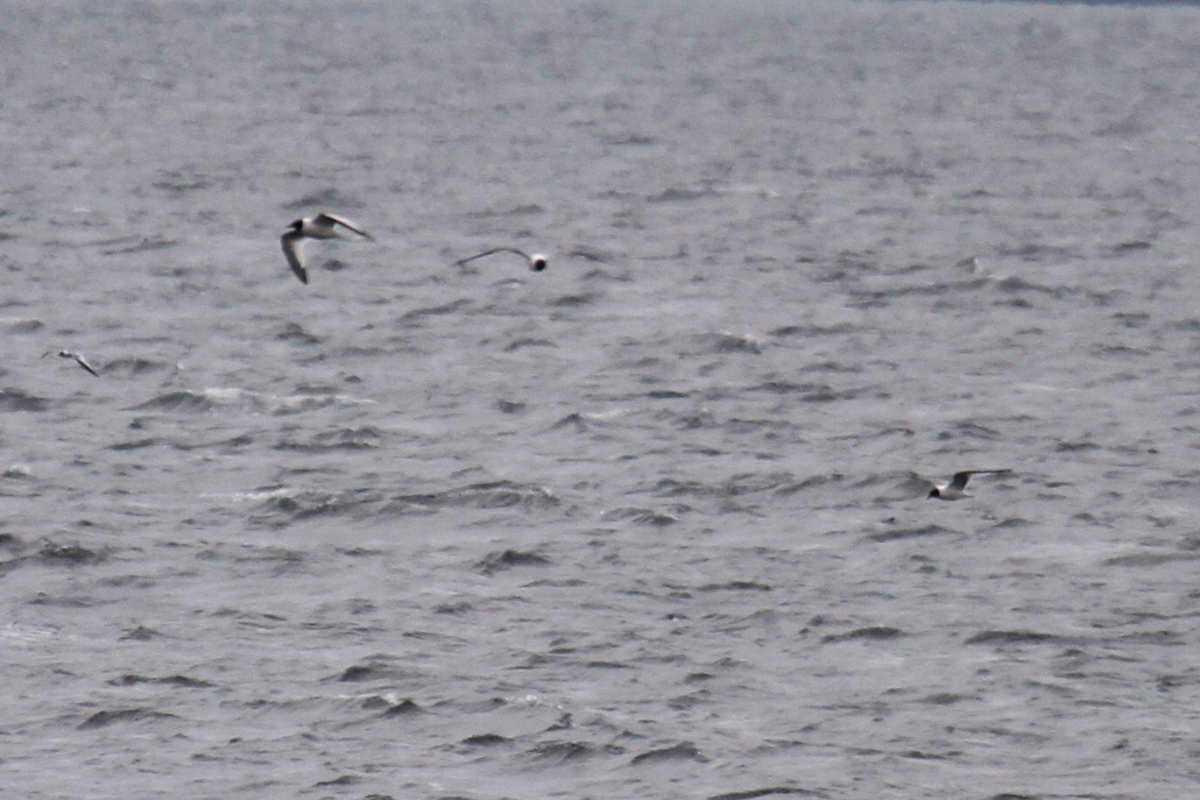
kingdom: Animalia
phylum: Chordata
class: Aves
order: Charadriiformes
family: Laridae
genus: Xema
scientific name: Xema sabini
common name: Sabine's gull
